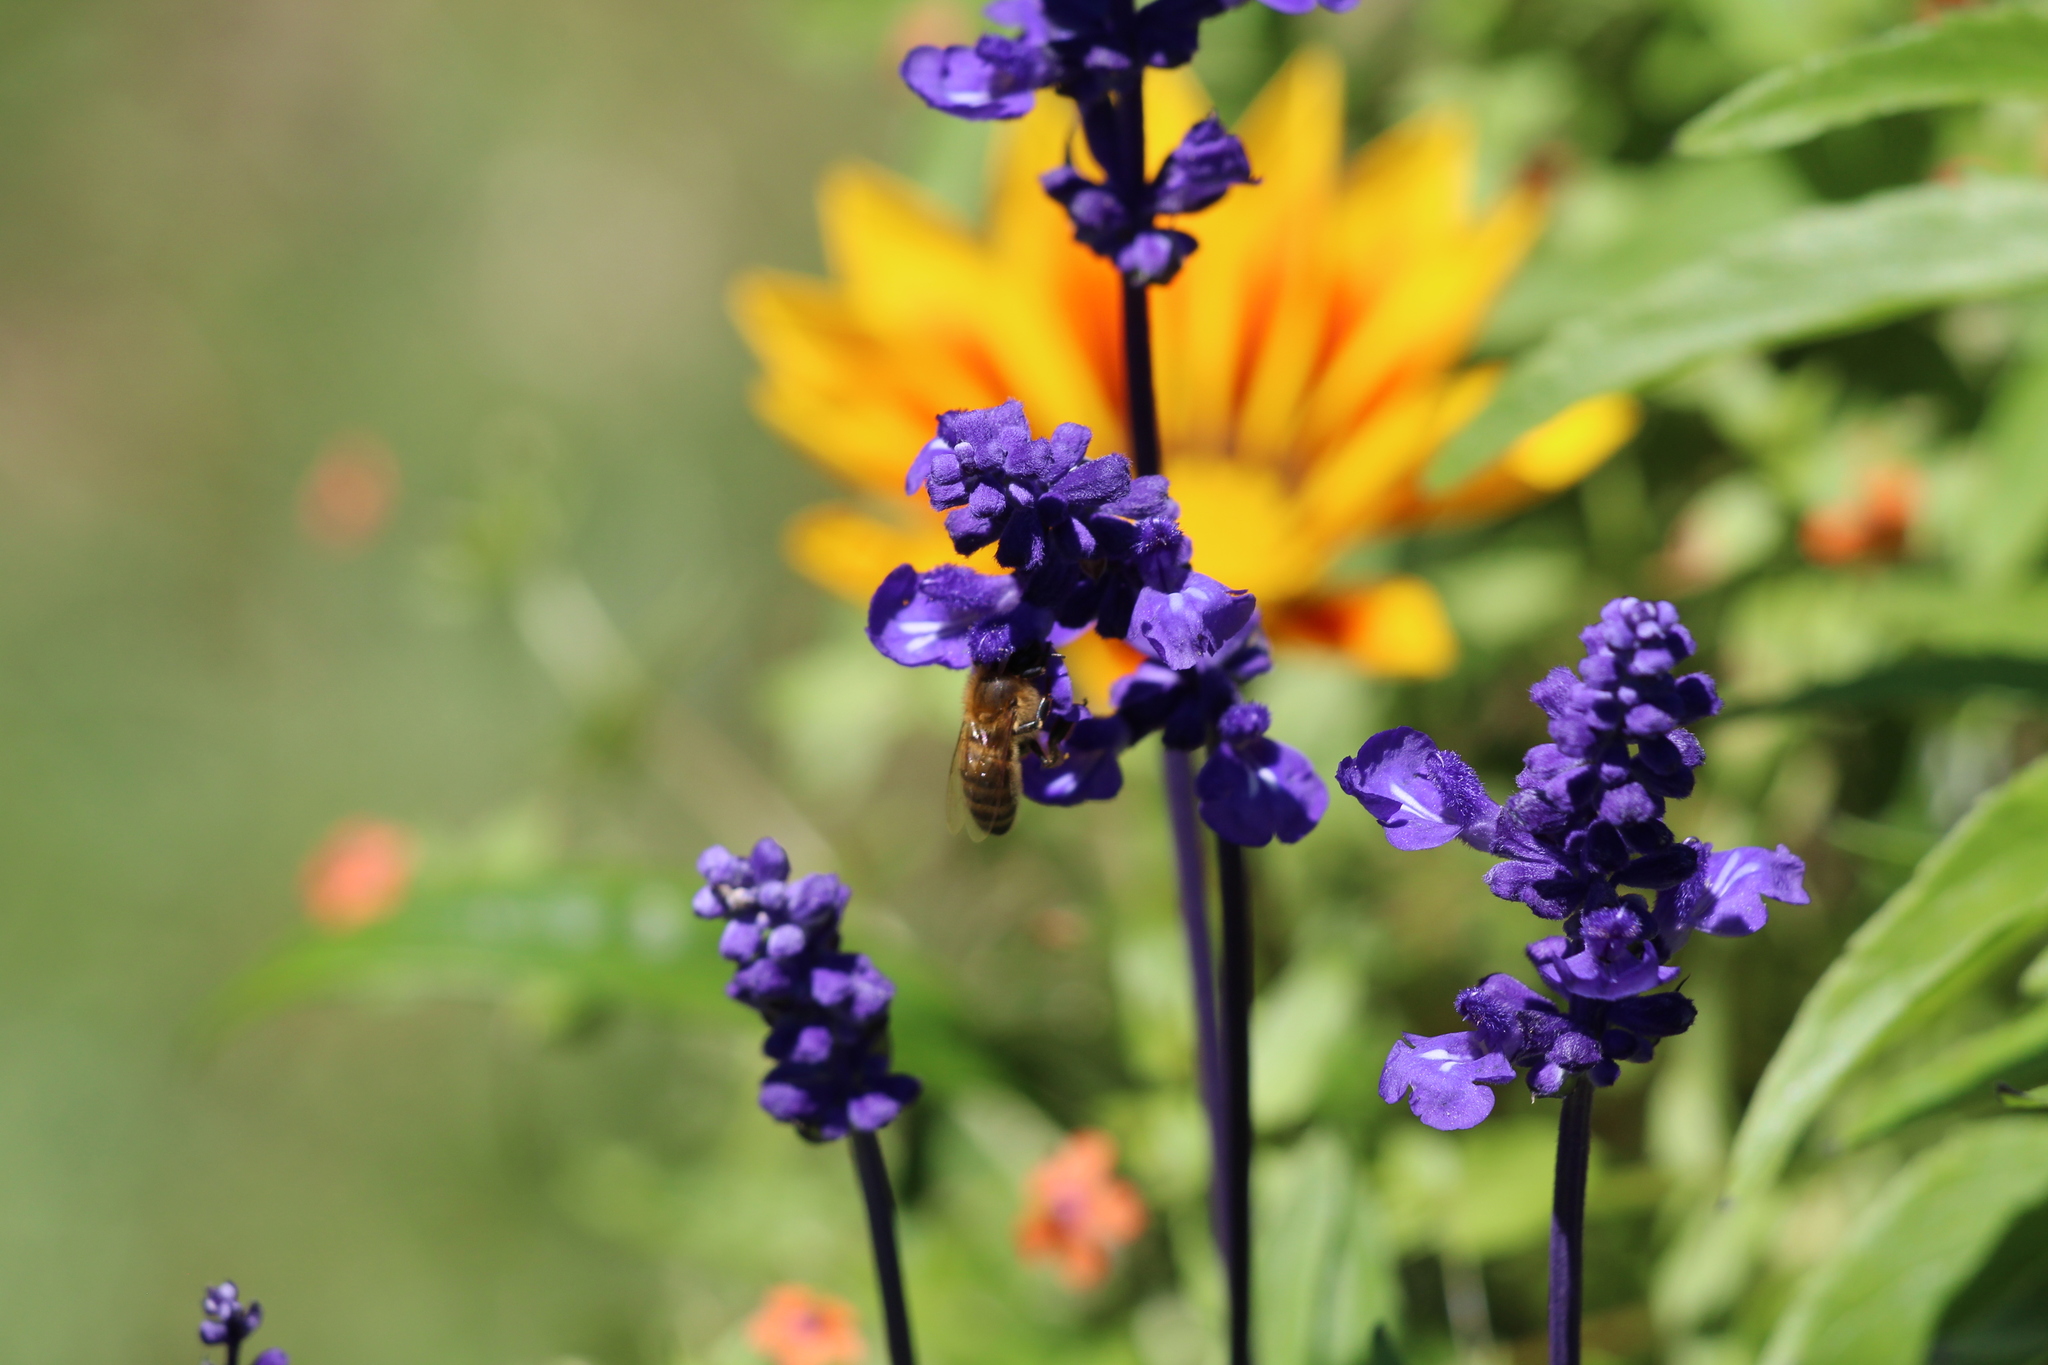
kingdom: Animalia
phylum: Arthropoda
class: Insecta
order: Hymenoptera
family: Apidae
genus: Apis
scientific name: Apis mellifera
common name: Honey bee
